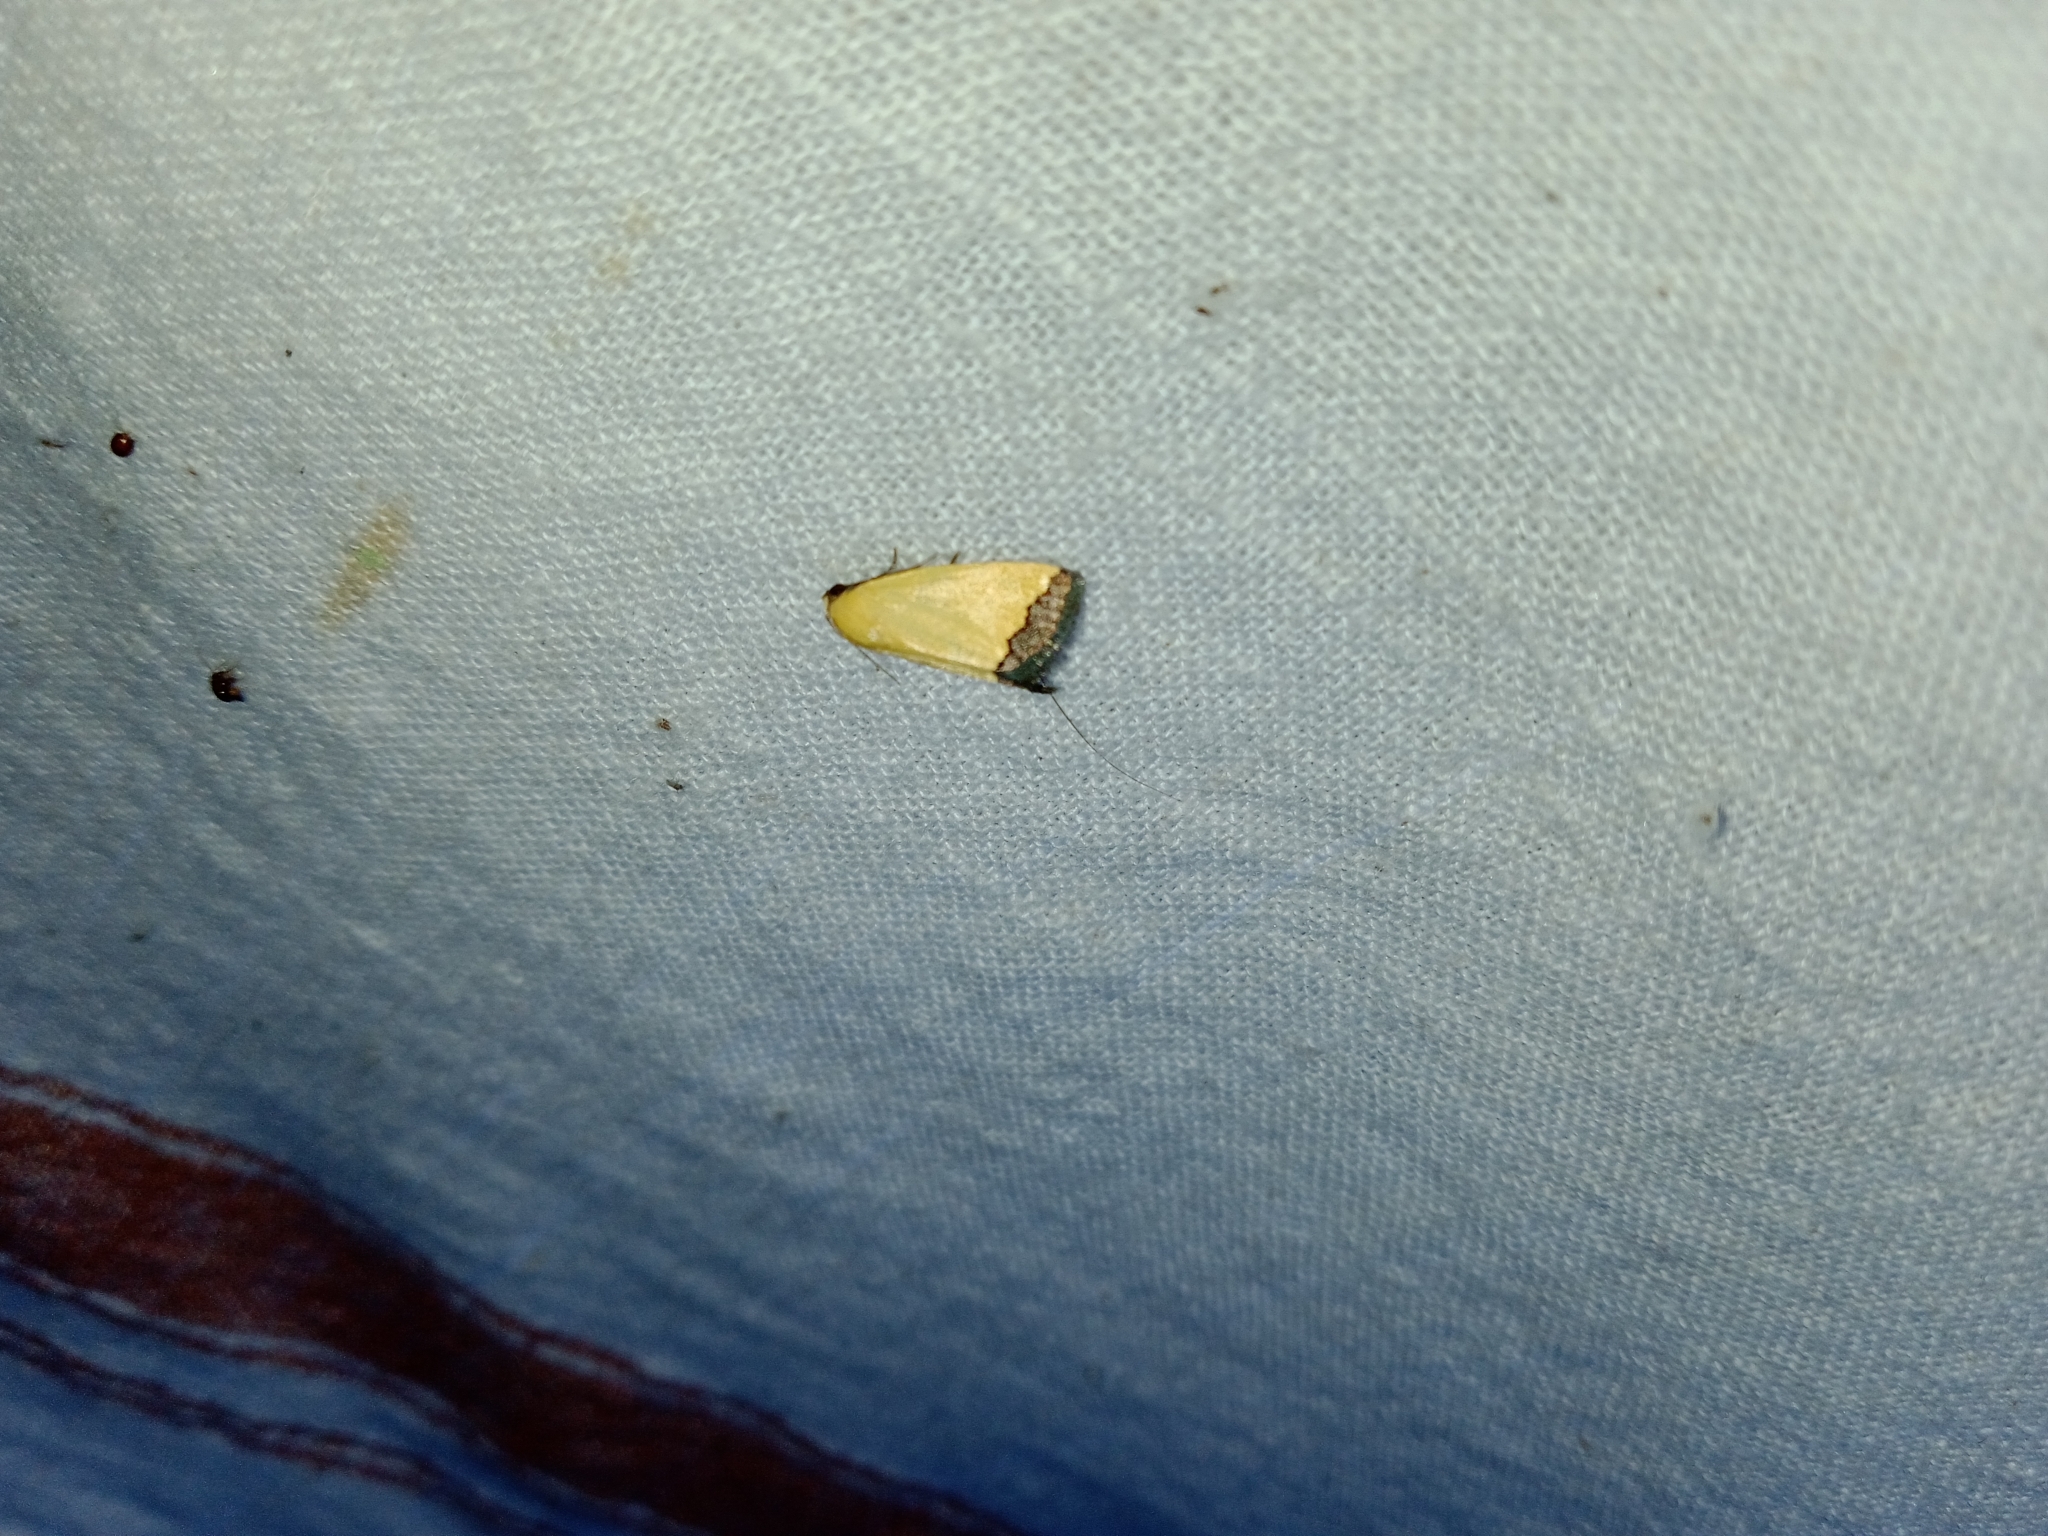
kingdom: Animalia
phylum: Arthropoda
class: Insecta
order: Lepidoptera
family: Noctuidae
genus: Eustrotia
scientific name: Eustrotia marginata
